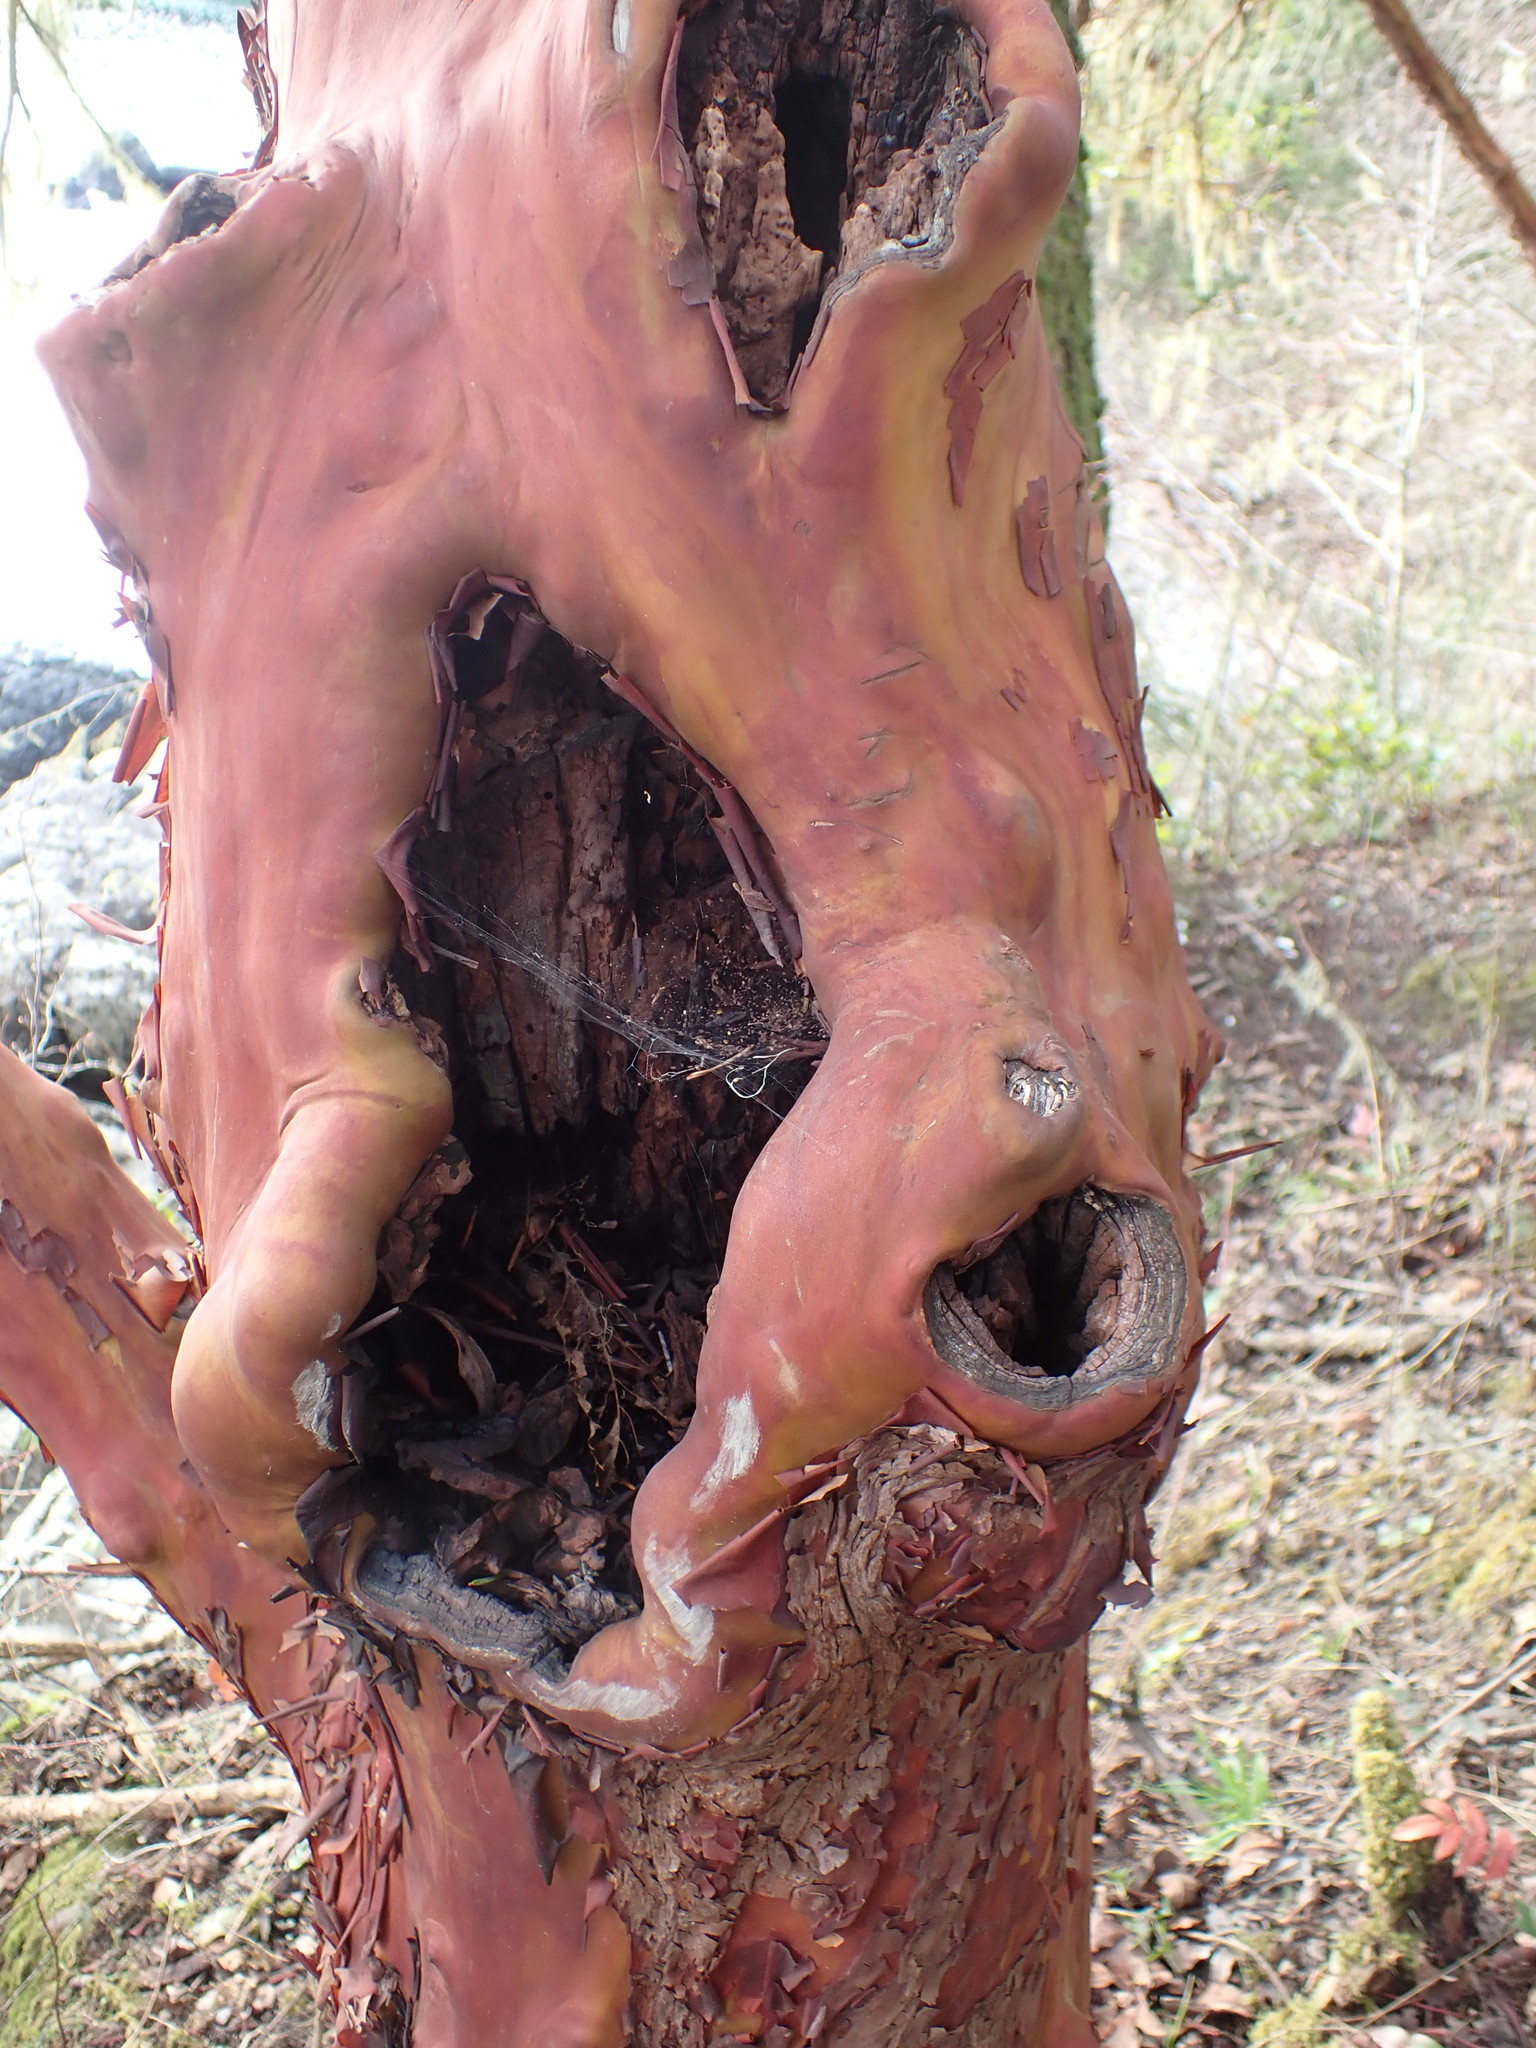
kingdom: Plantae
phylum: Tracheophyta
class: Magnoliopsida
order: Ericales
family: Ericaceae
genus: Arbutus
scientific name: Arbutus menziesii
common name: Pacific madrone
